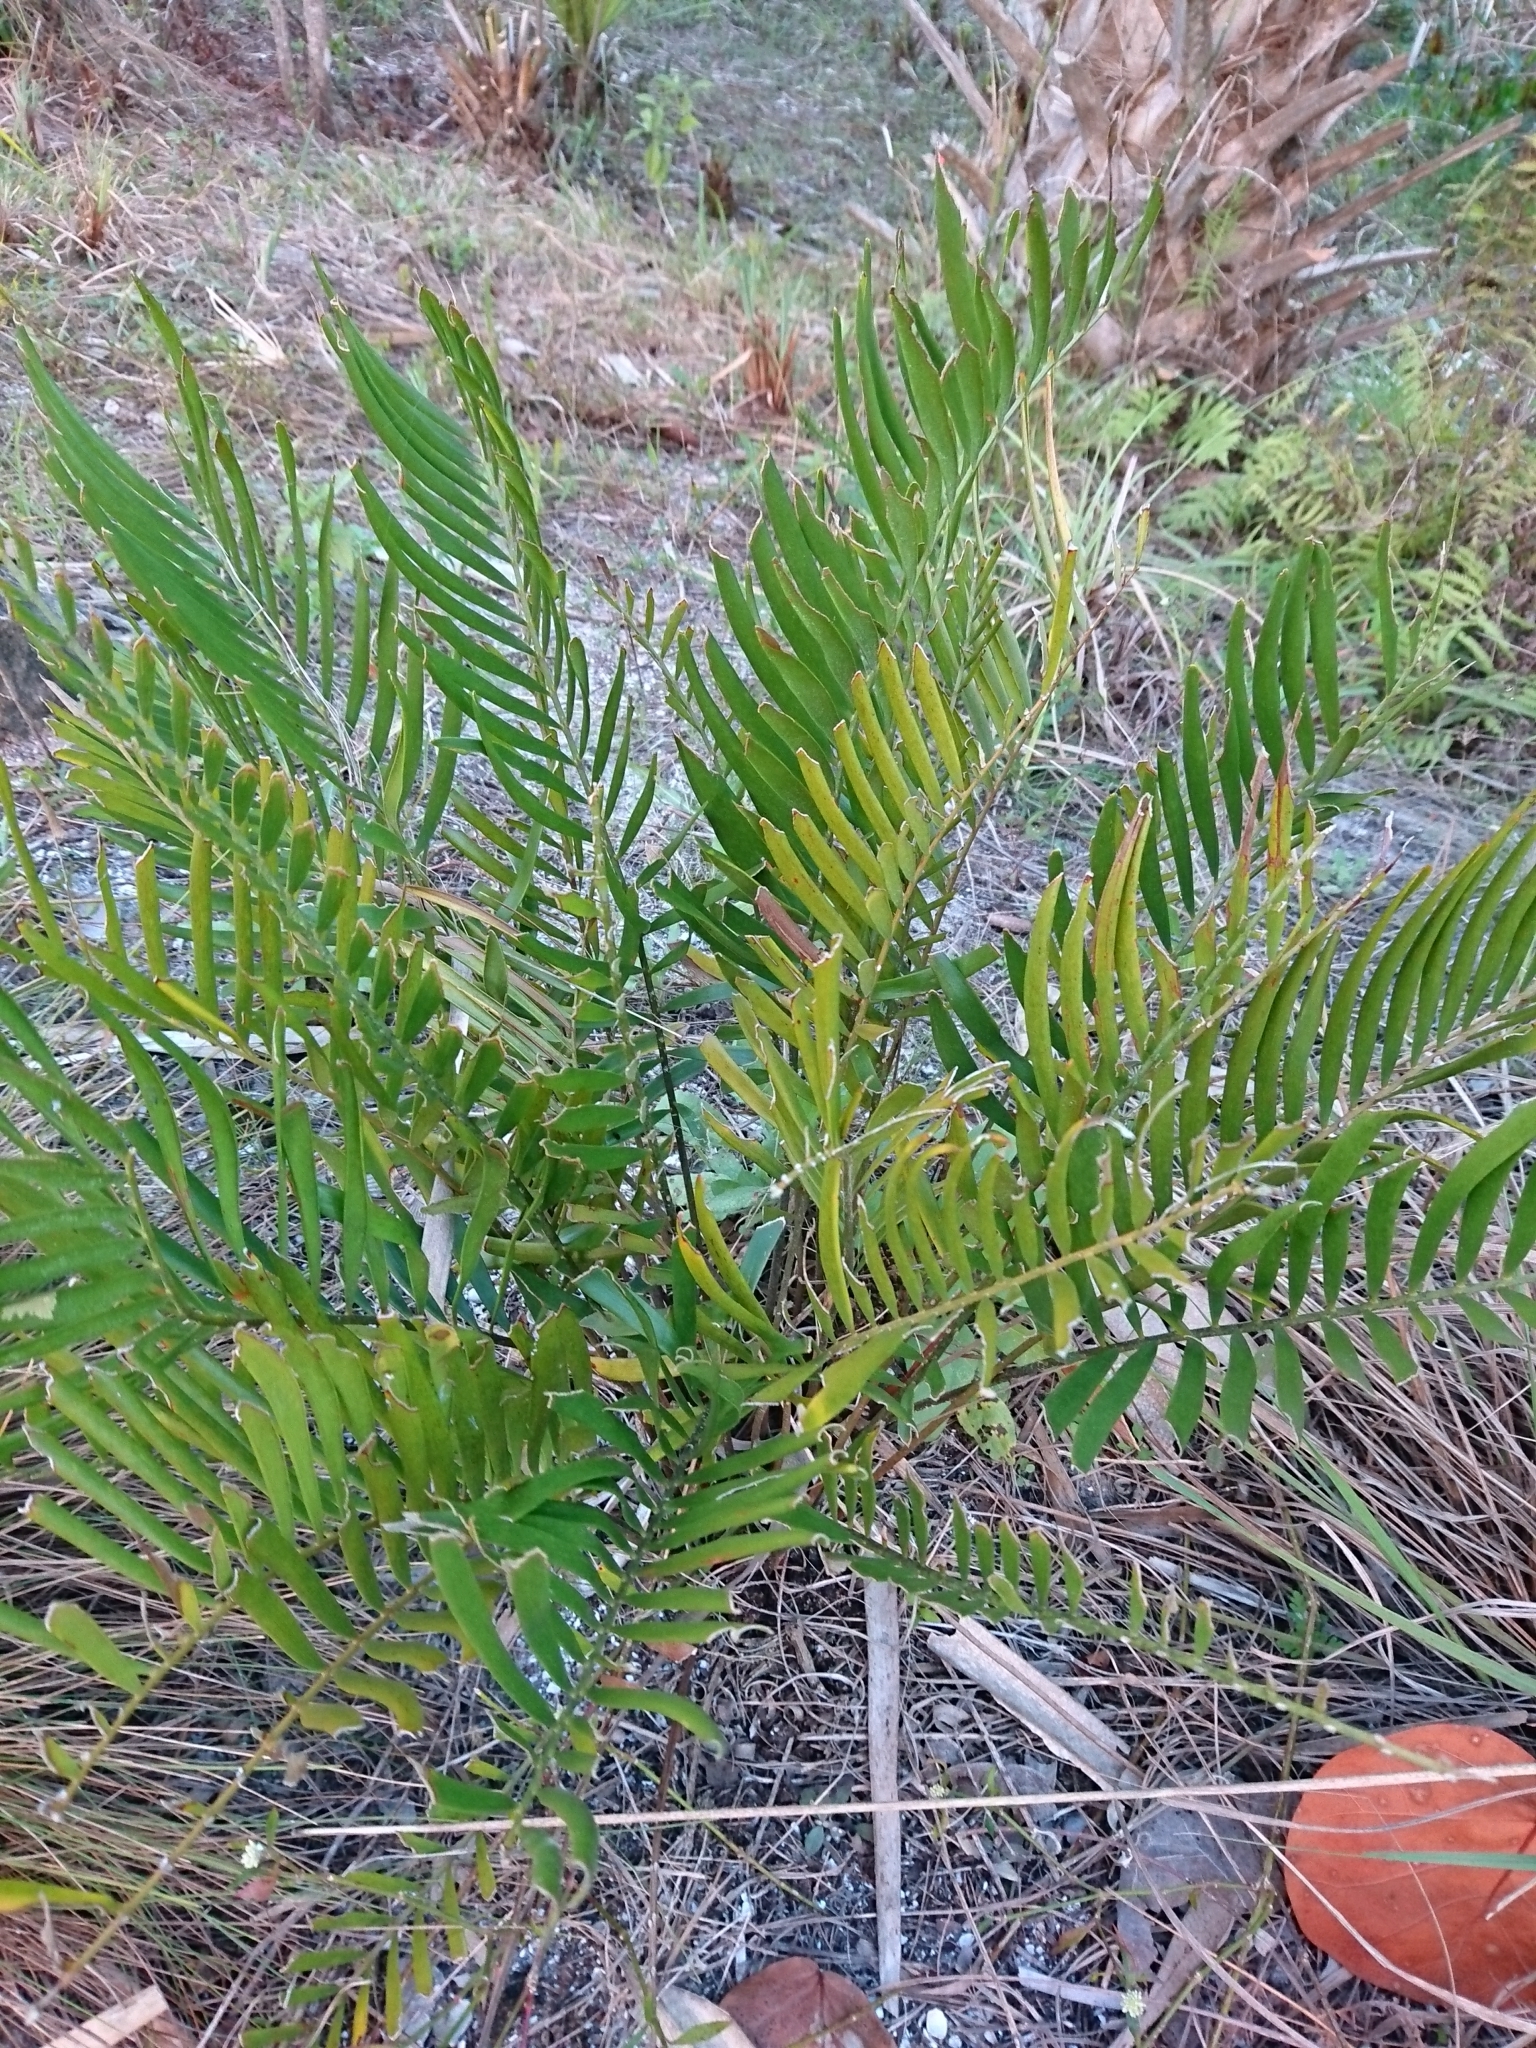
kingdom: Plantae
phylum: Tracheophyta
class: Cycadopsida
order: Cycadales
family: Zamiaceae
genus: Zamia
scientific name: Zamia integrifolia
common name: Florida arrowroot
